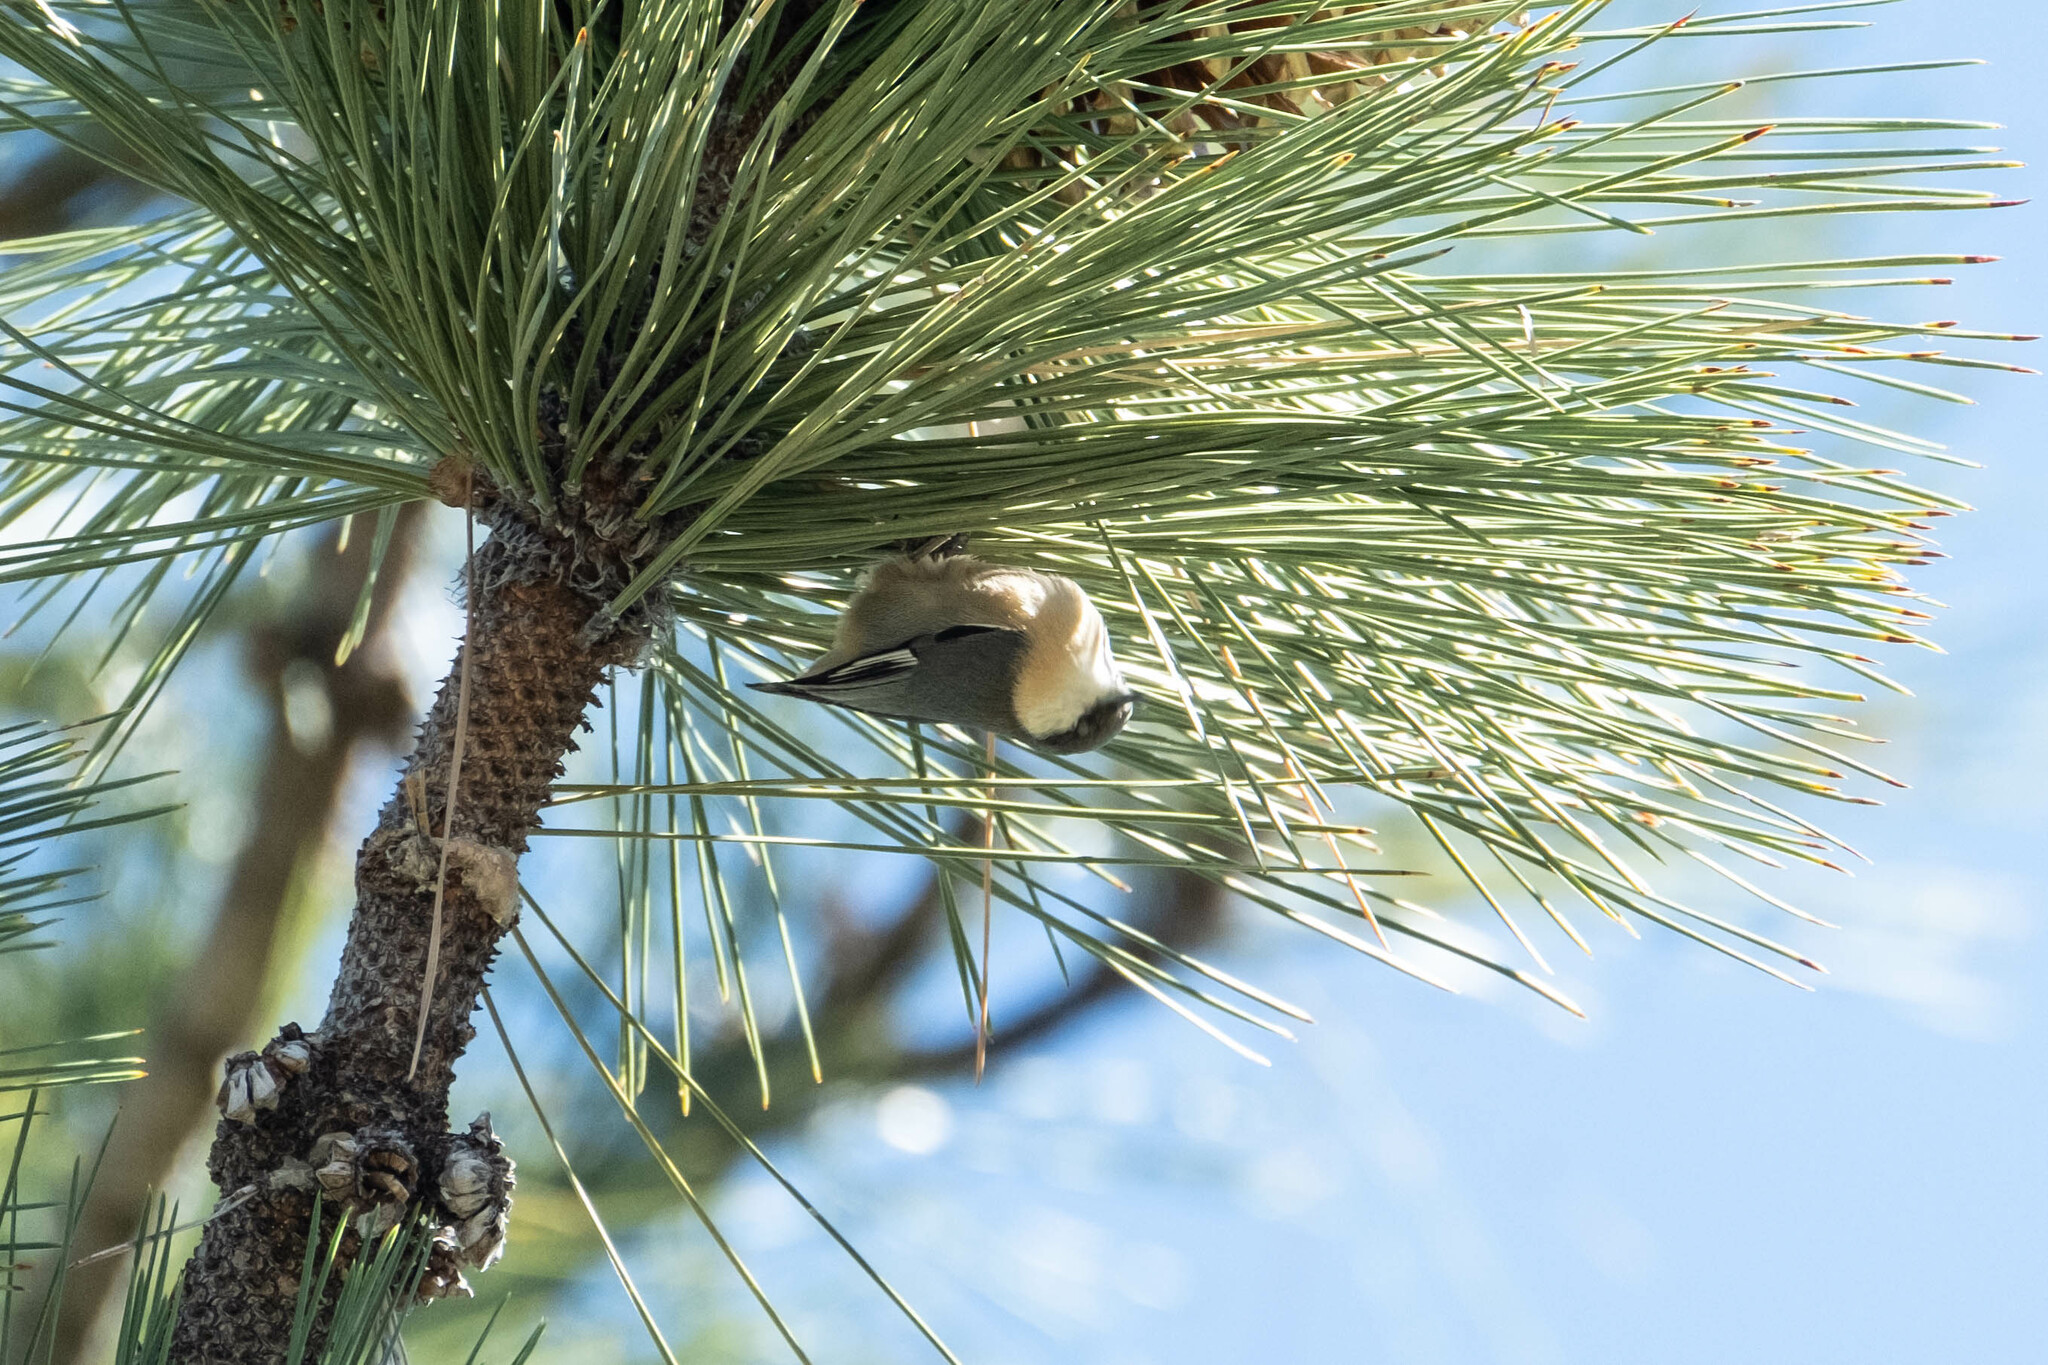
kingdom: Animalia
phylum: Chordata
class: Aves
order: Passeriformes
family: Sittidae
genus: Sitta
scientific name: Sitta pygmaea
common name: Pygmy nuthatch
